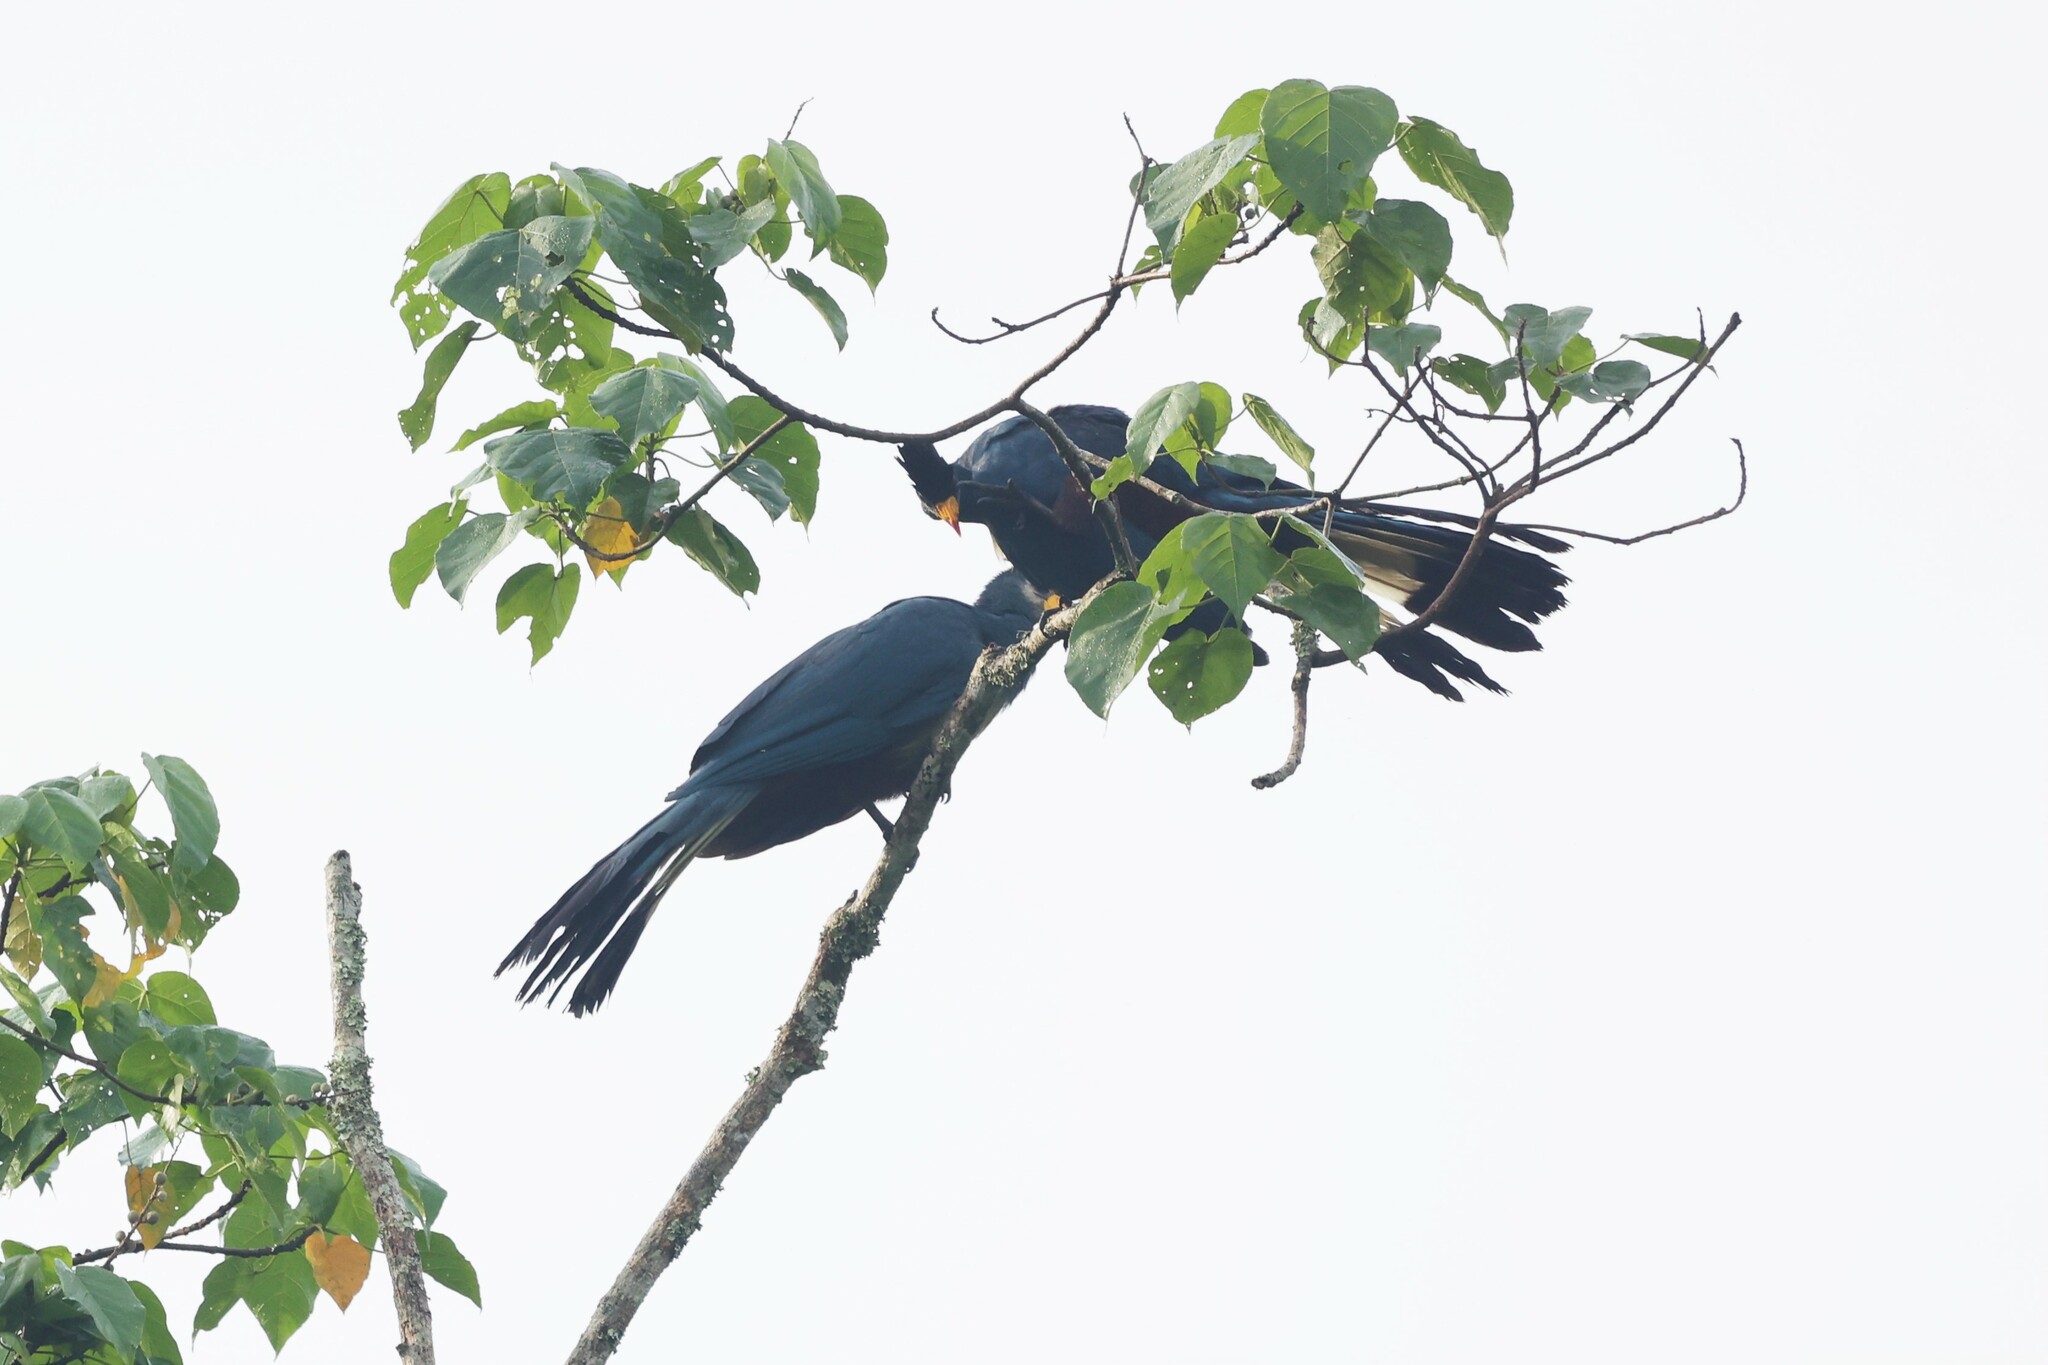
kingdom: Animalia
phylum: Chordata
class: Aves
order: Musophagiformes
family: Musophagidae
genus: Corythaeola
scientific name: Corythaeola cristata
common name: Great blue turaco
